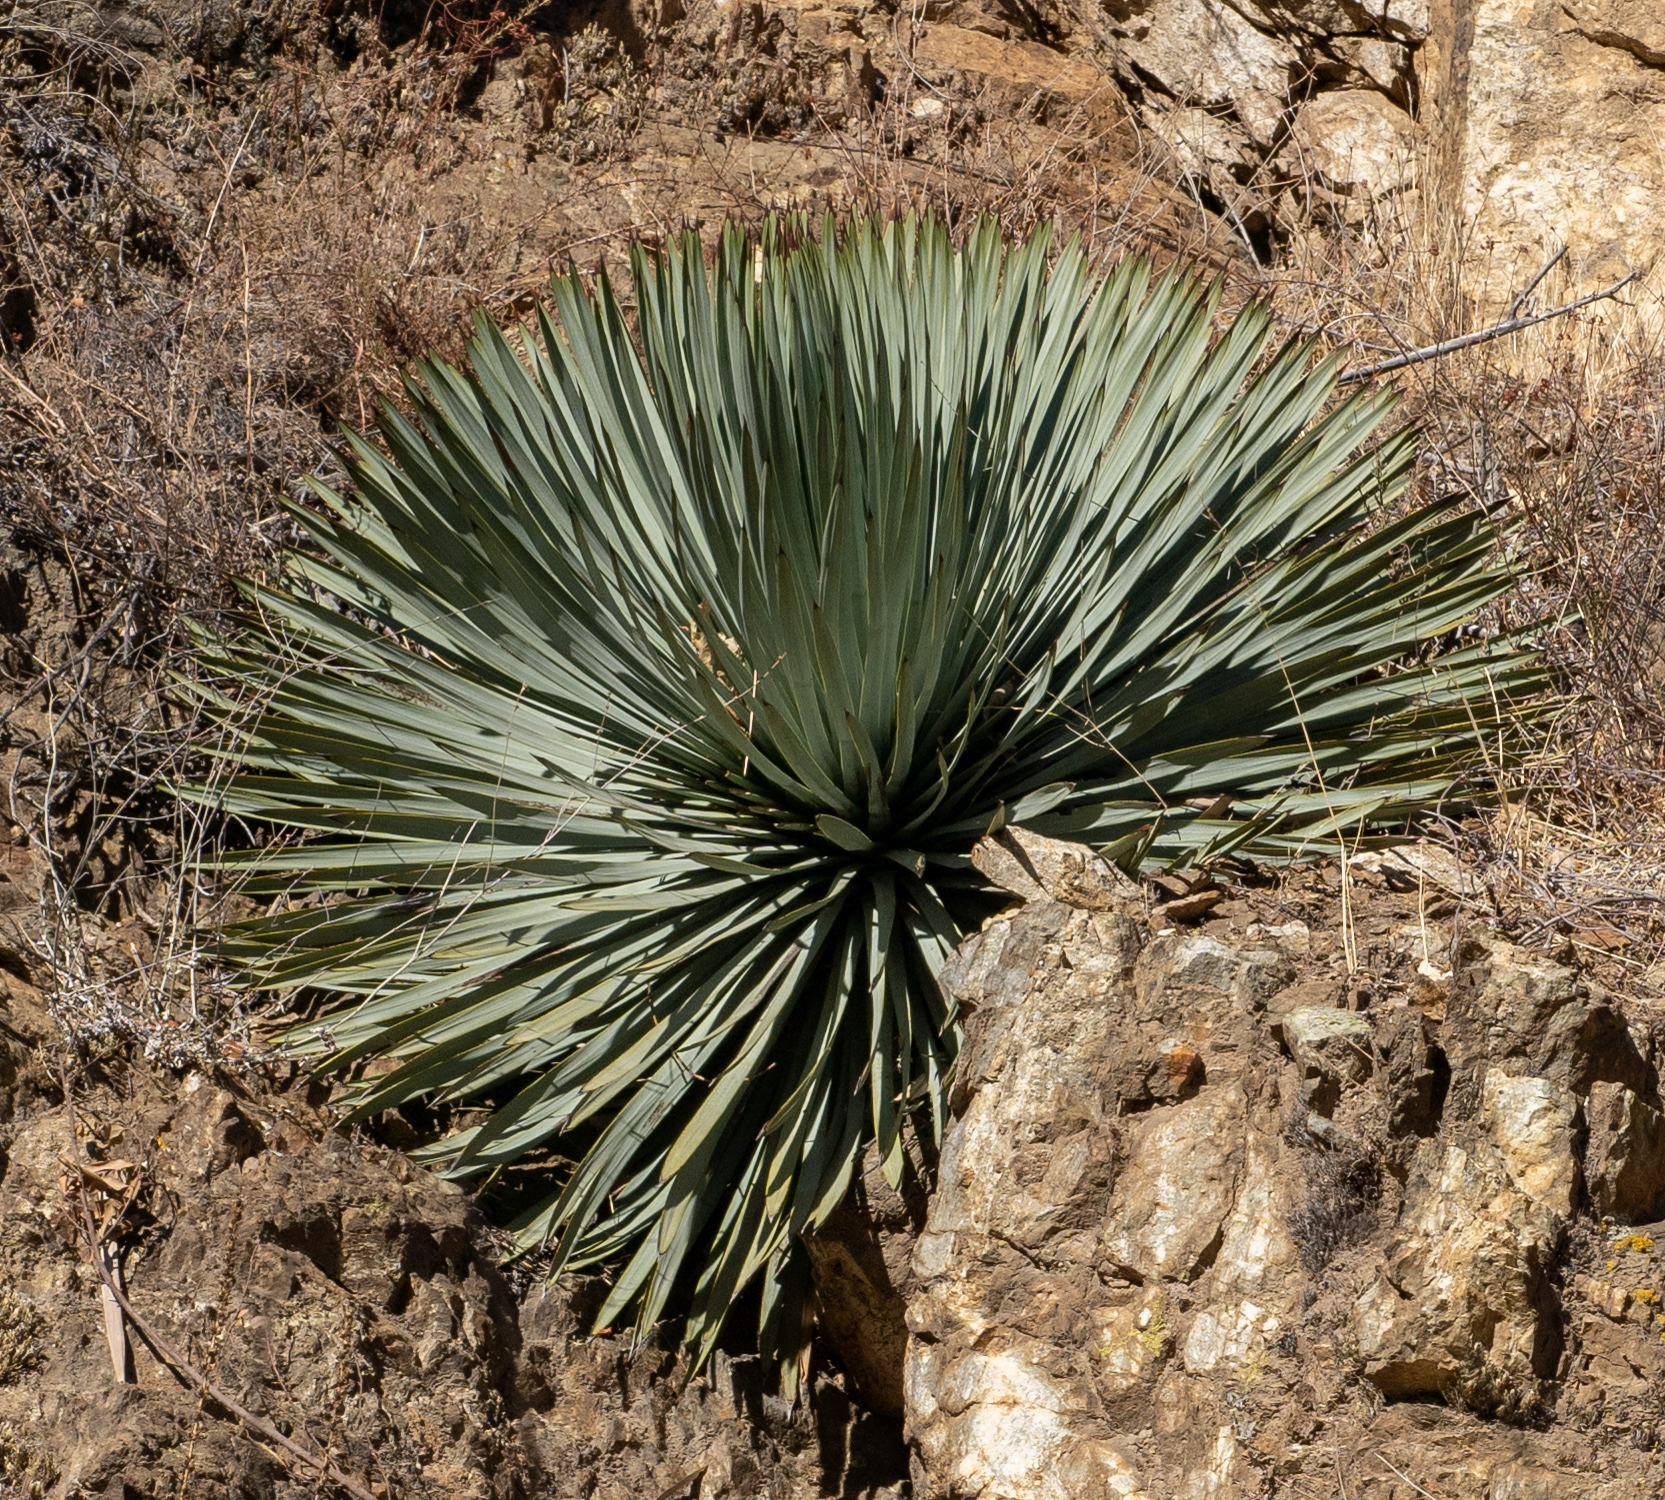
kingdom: Plantae
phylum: Tracheophyta
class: Liliopsida
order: Asparagales
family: Asparagaceae
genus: Hesperoyucca
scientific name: Hesperoyucca whipplei
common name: Our lord's-candle
